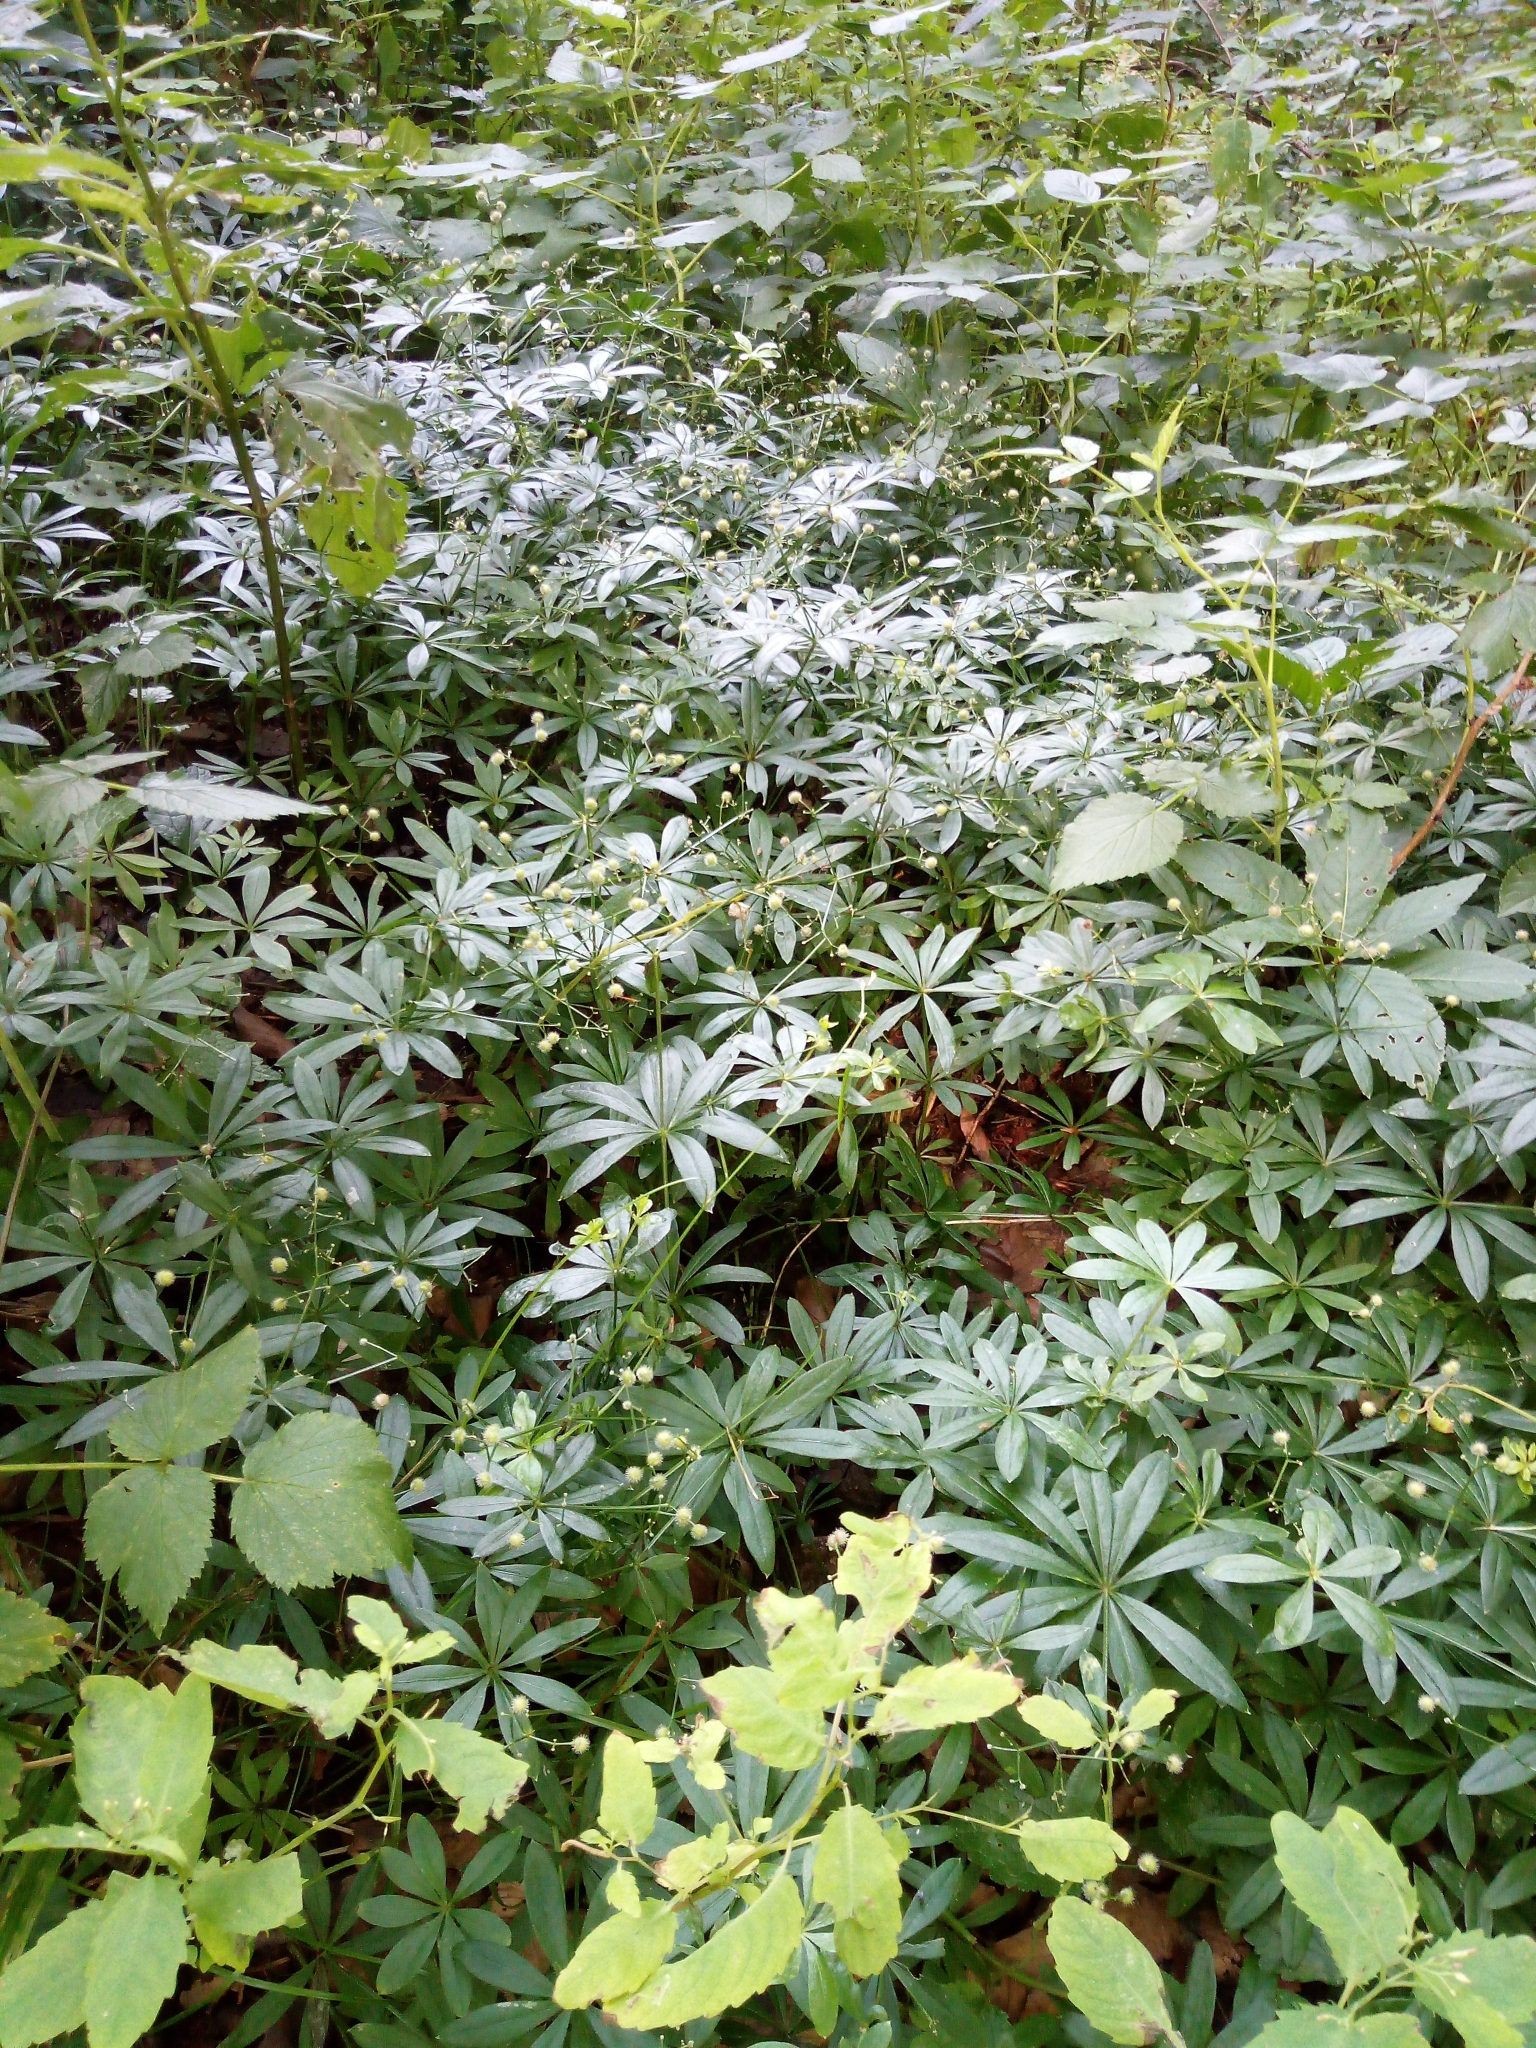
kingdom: Plantae
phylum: Tracheophyta
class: Magnoliopsida
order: Gentianales
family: Rubiaceae
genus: Galium
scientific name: Galium odoratum
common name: Sweet woodruff
